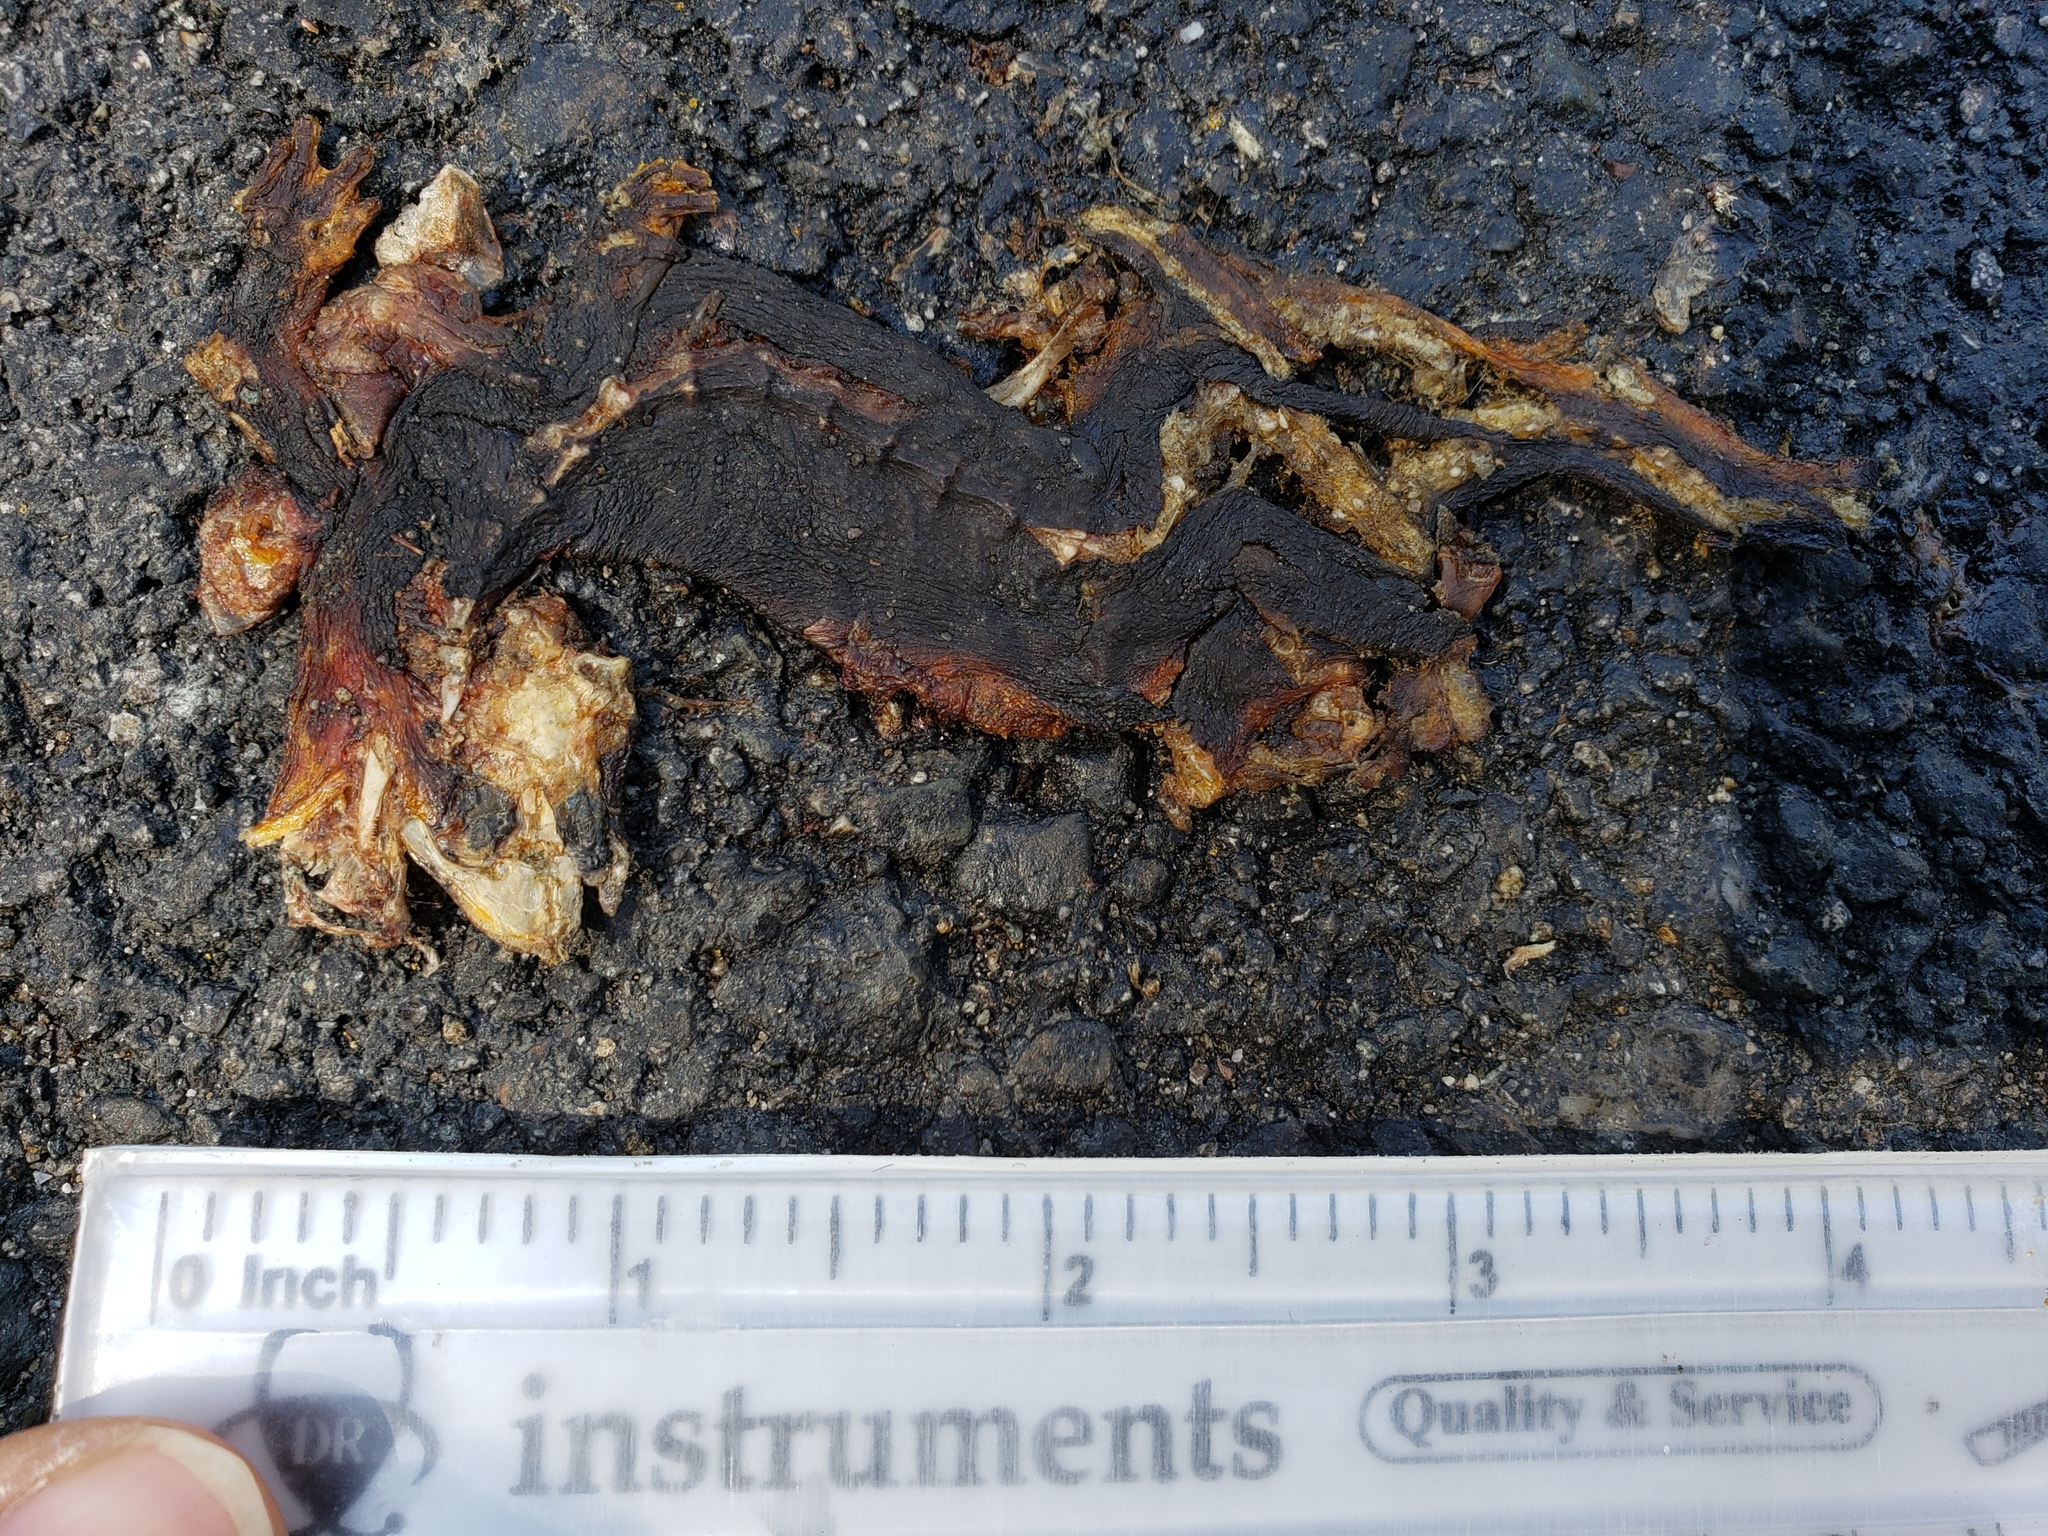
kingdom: Animalia
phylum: Chordata
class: Amphibia
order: Caudata
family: Salamandridae
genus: Taricha
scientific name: Taricha
